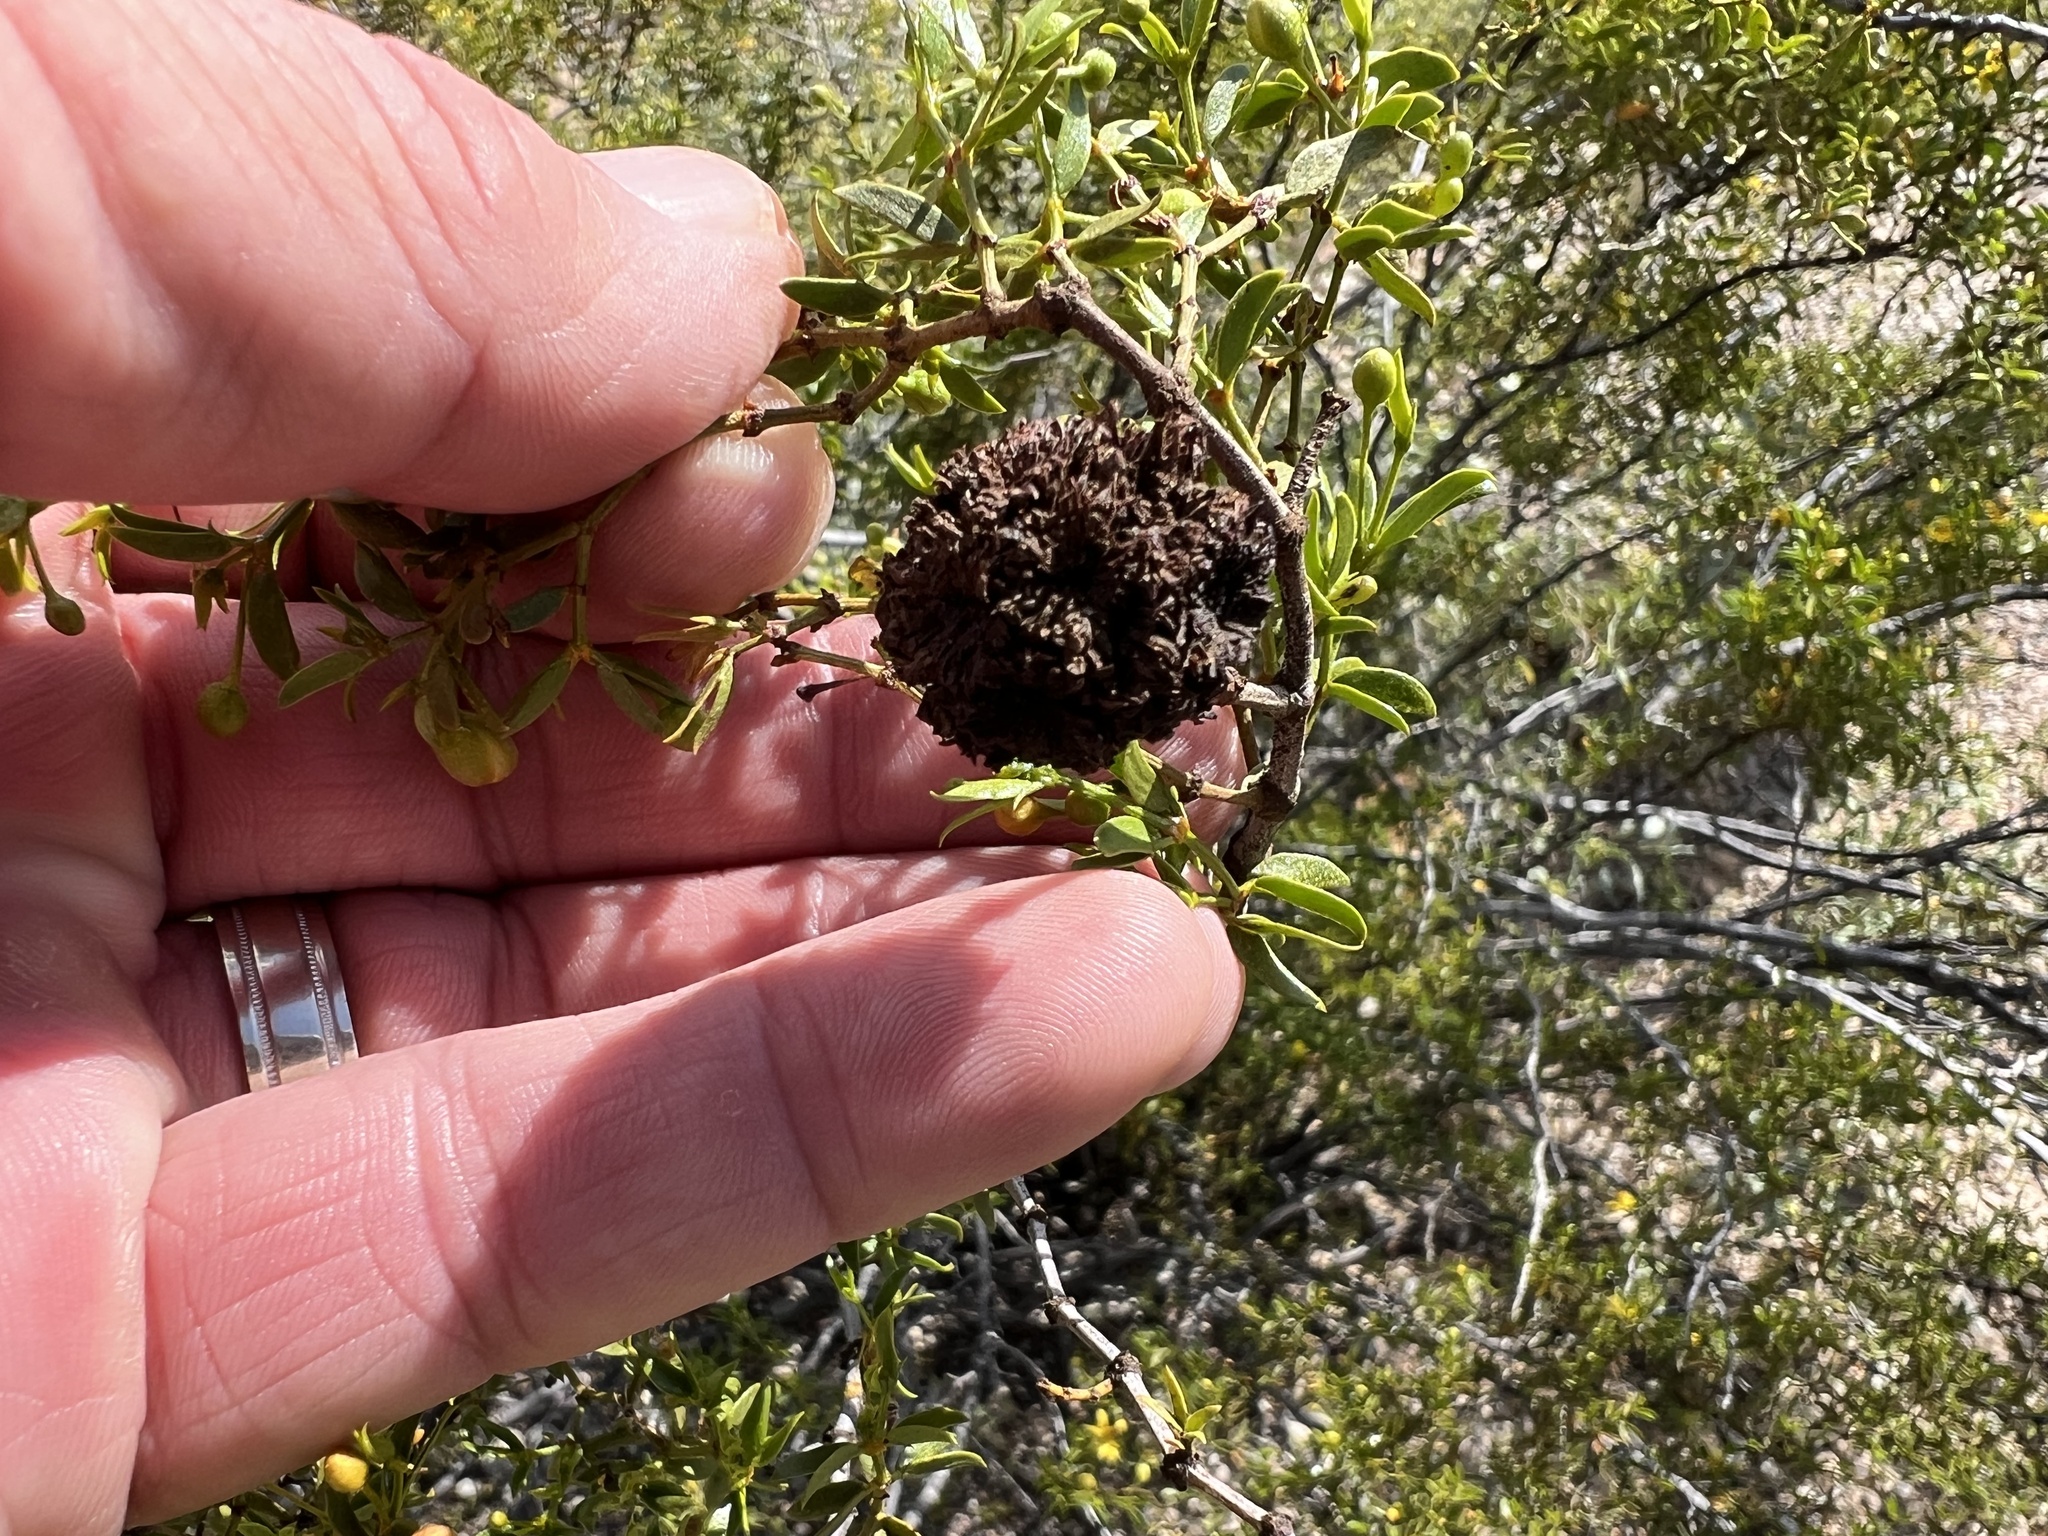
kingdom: Animalia
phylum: Arthropoda
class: Insecta
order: Diptera
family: Cecidomyiidae
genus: Asphondylia
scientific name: Asphondylia auripila
